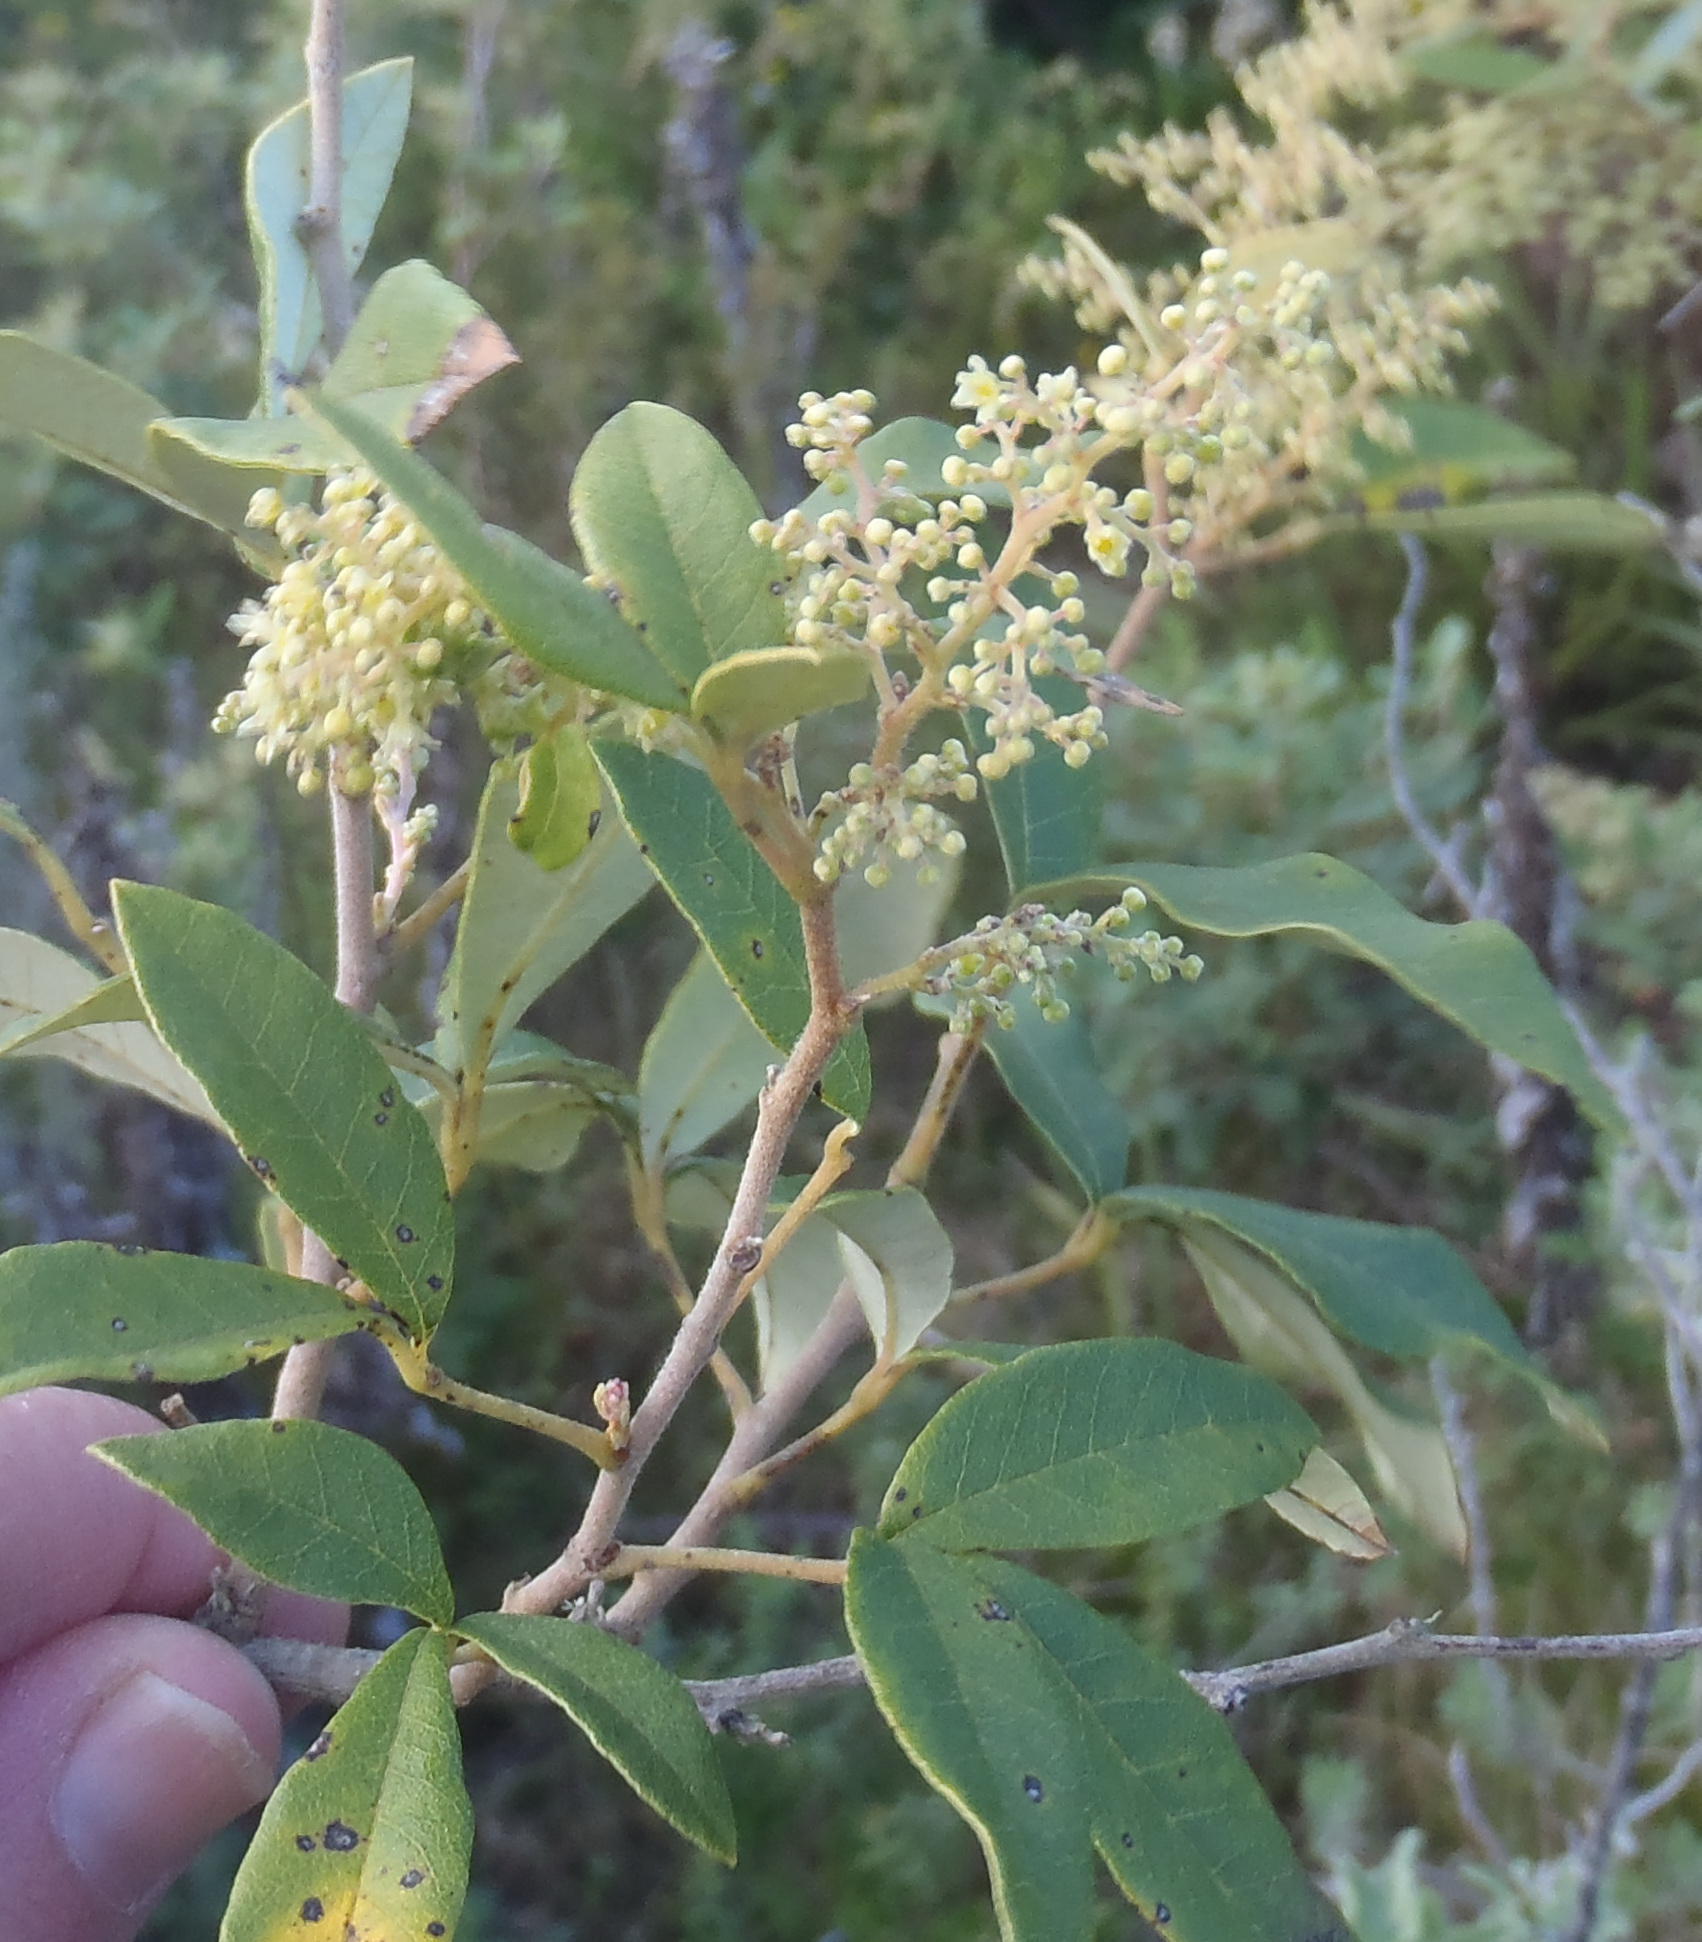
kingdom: Plantae
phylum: Tracheophyta
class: Magnoliopsida
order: Sapindales
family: Anacardiaceae
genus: Searsia
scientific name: Searsia tomentosa
